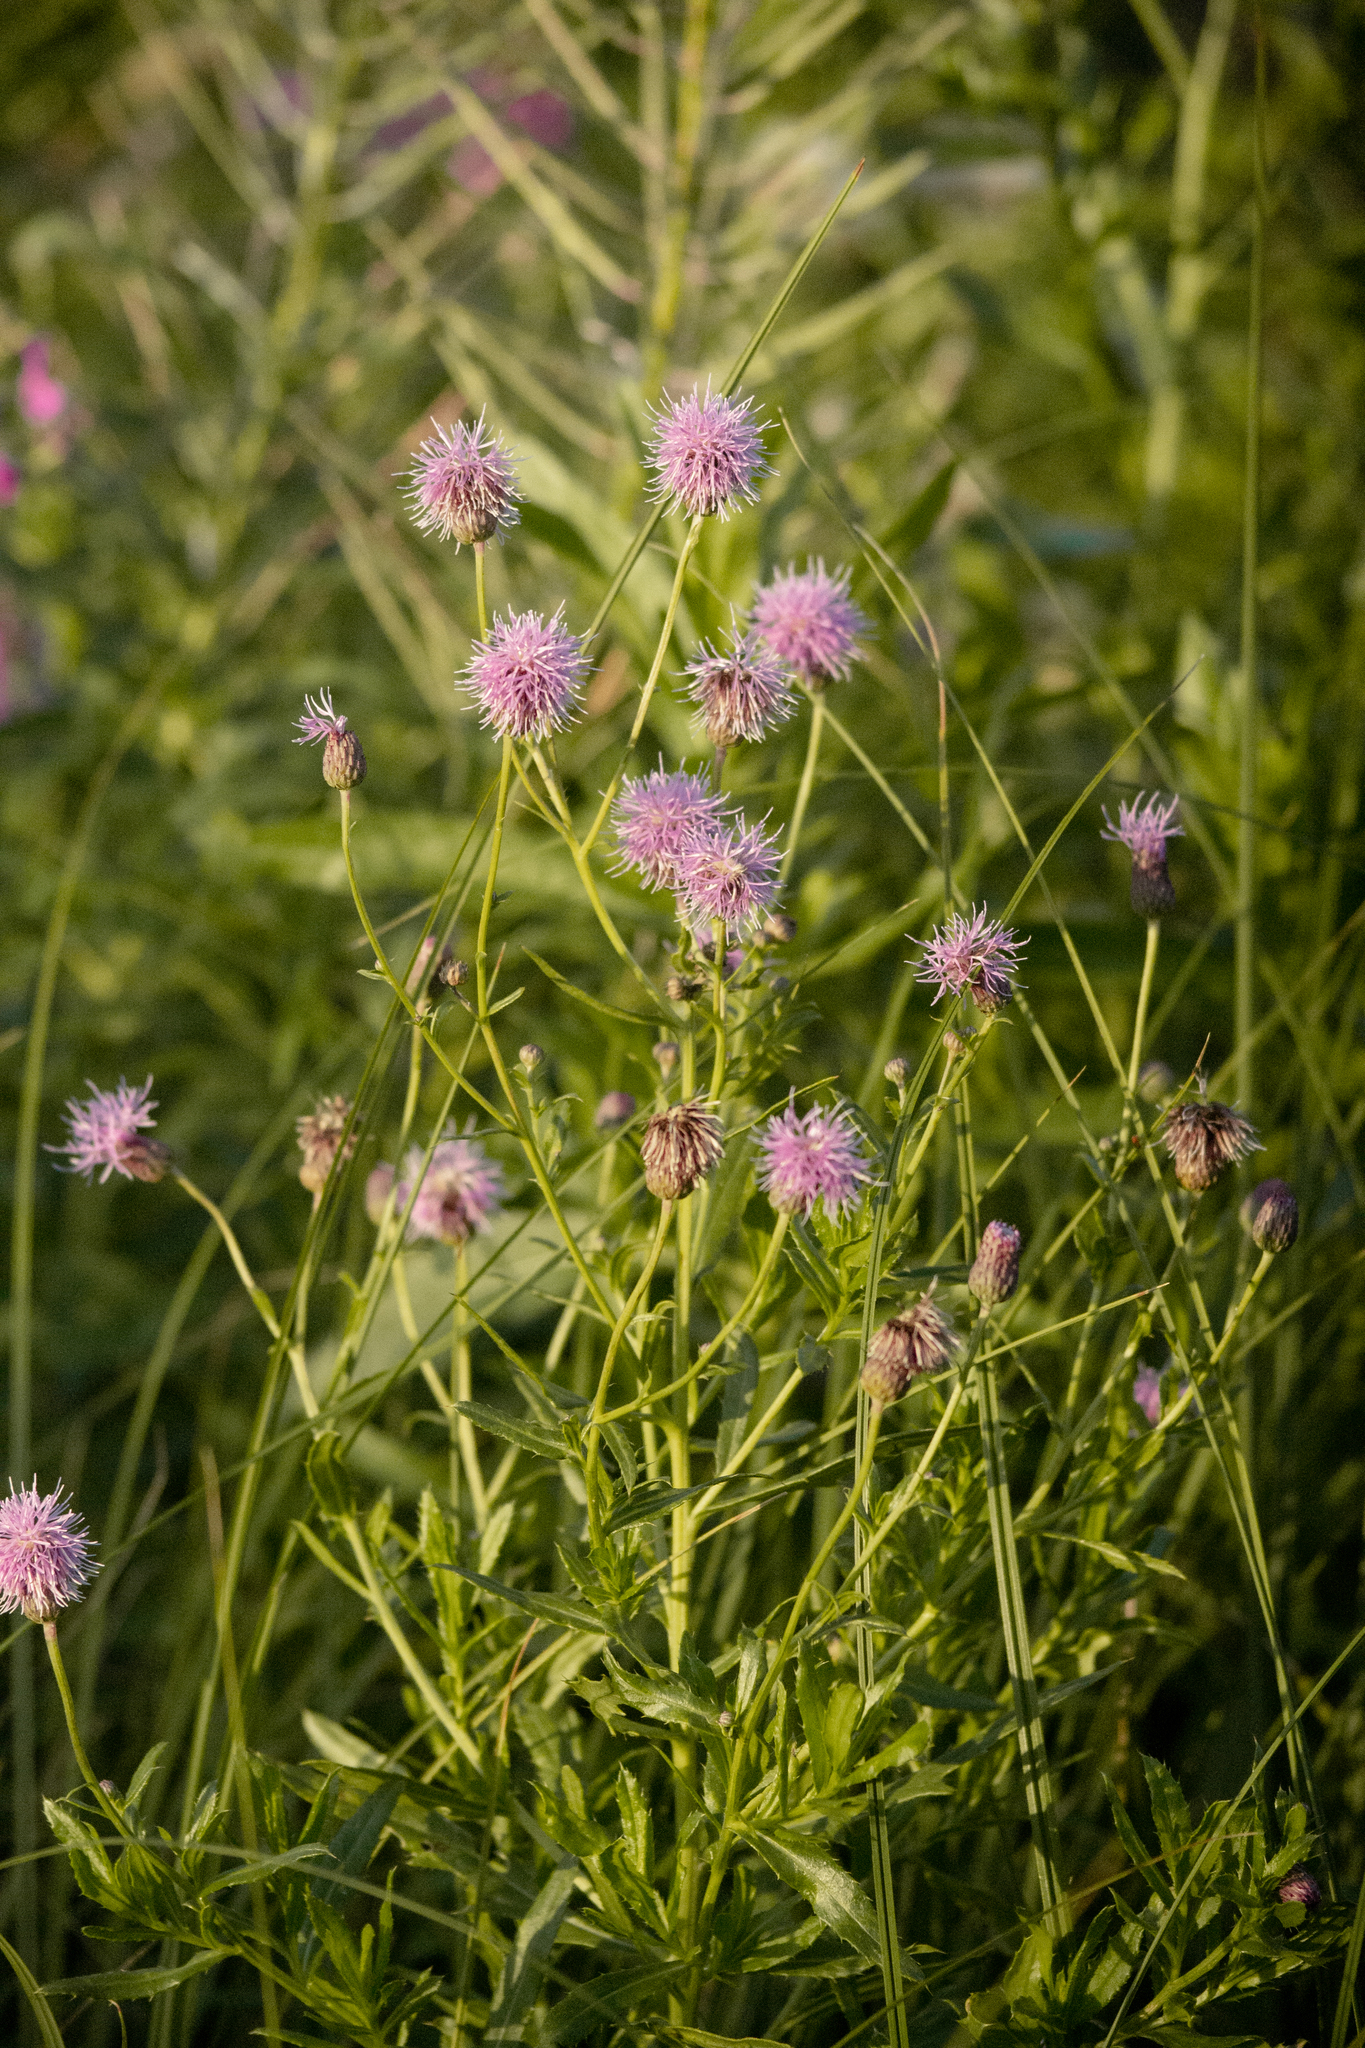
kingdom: Plantae
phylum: Tracheophyta
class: Magnoliopsida
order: Asterales
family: Asteraceae
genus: Cirsium
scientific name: Cirsium arvense
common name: Creeping thistle
